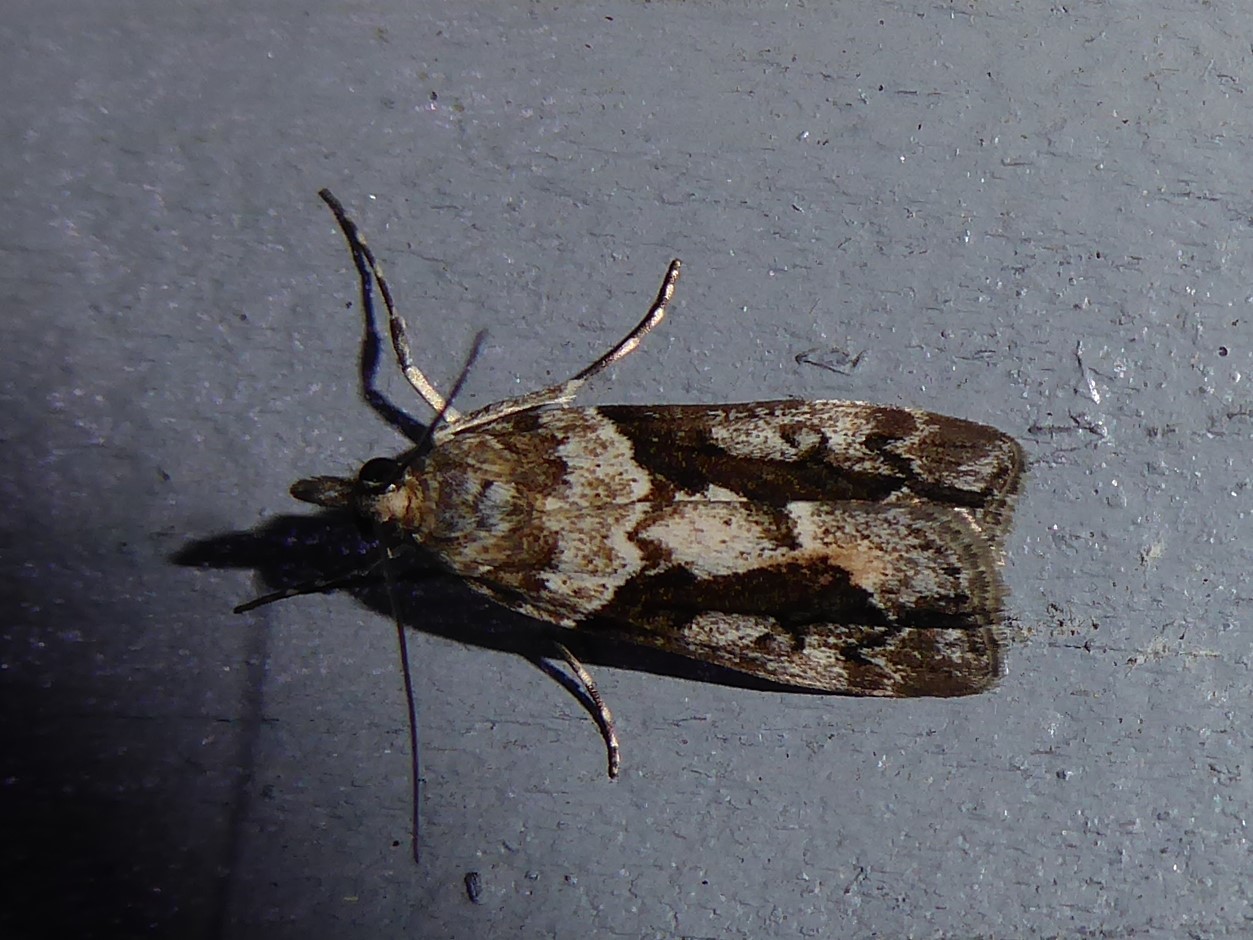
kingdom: Animalia
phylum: Arthropoda
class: Insecta
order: Lepidoptera
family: Crambidae
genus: Eudonia
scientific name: Eudonia submarginalis
